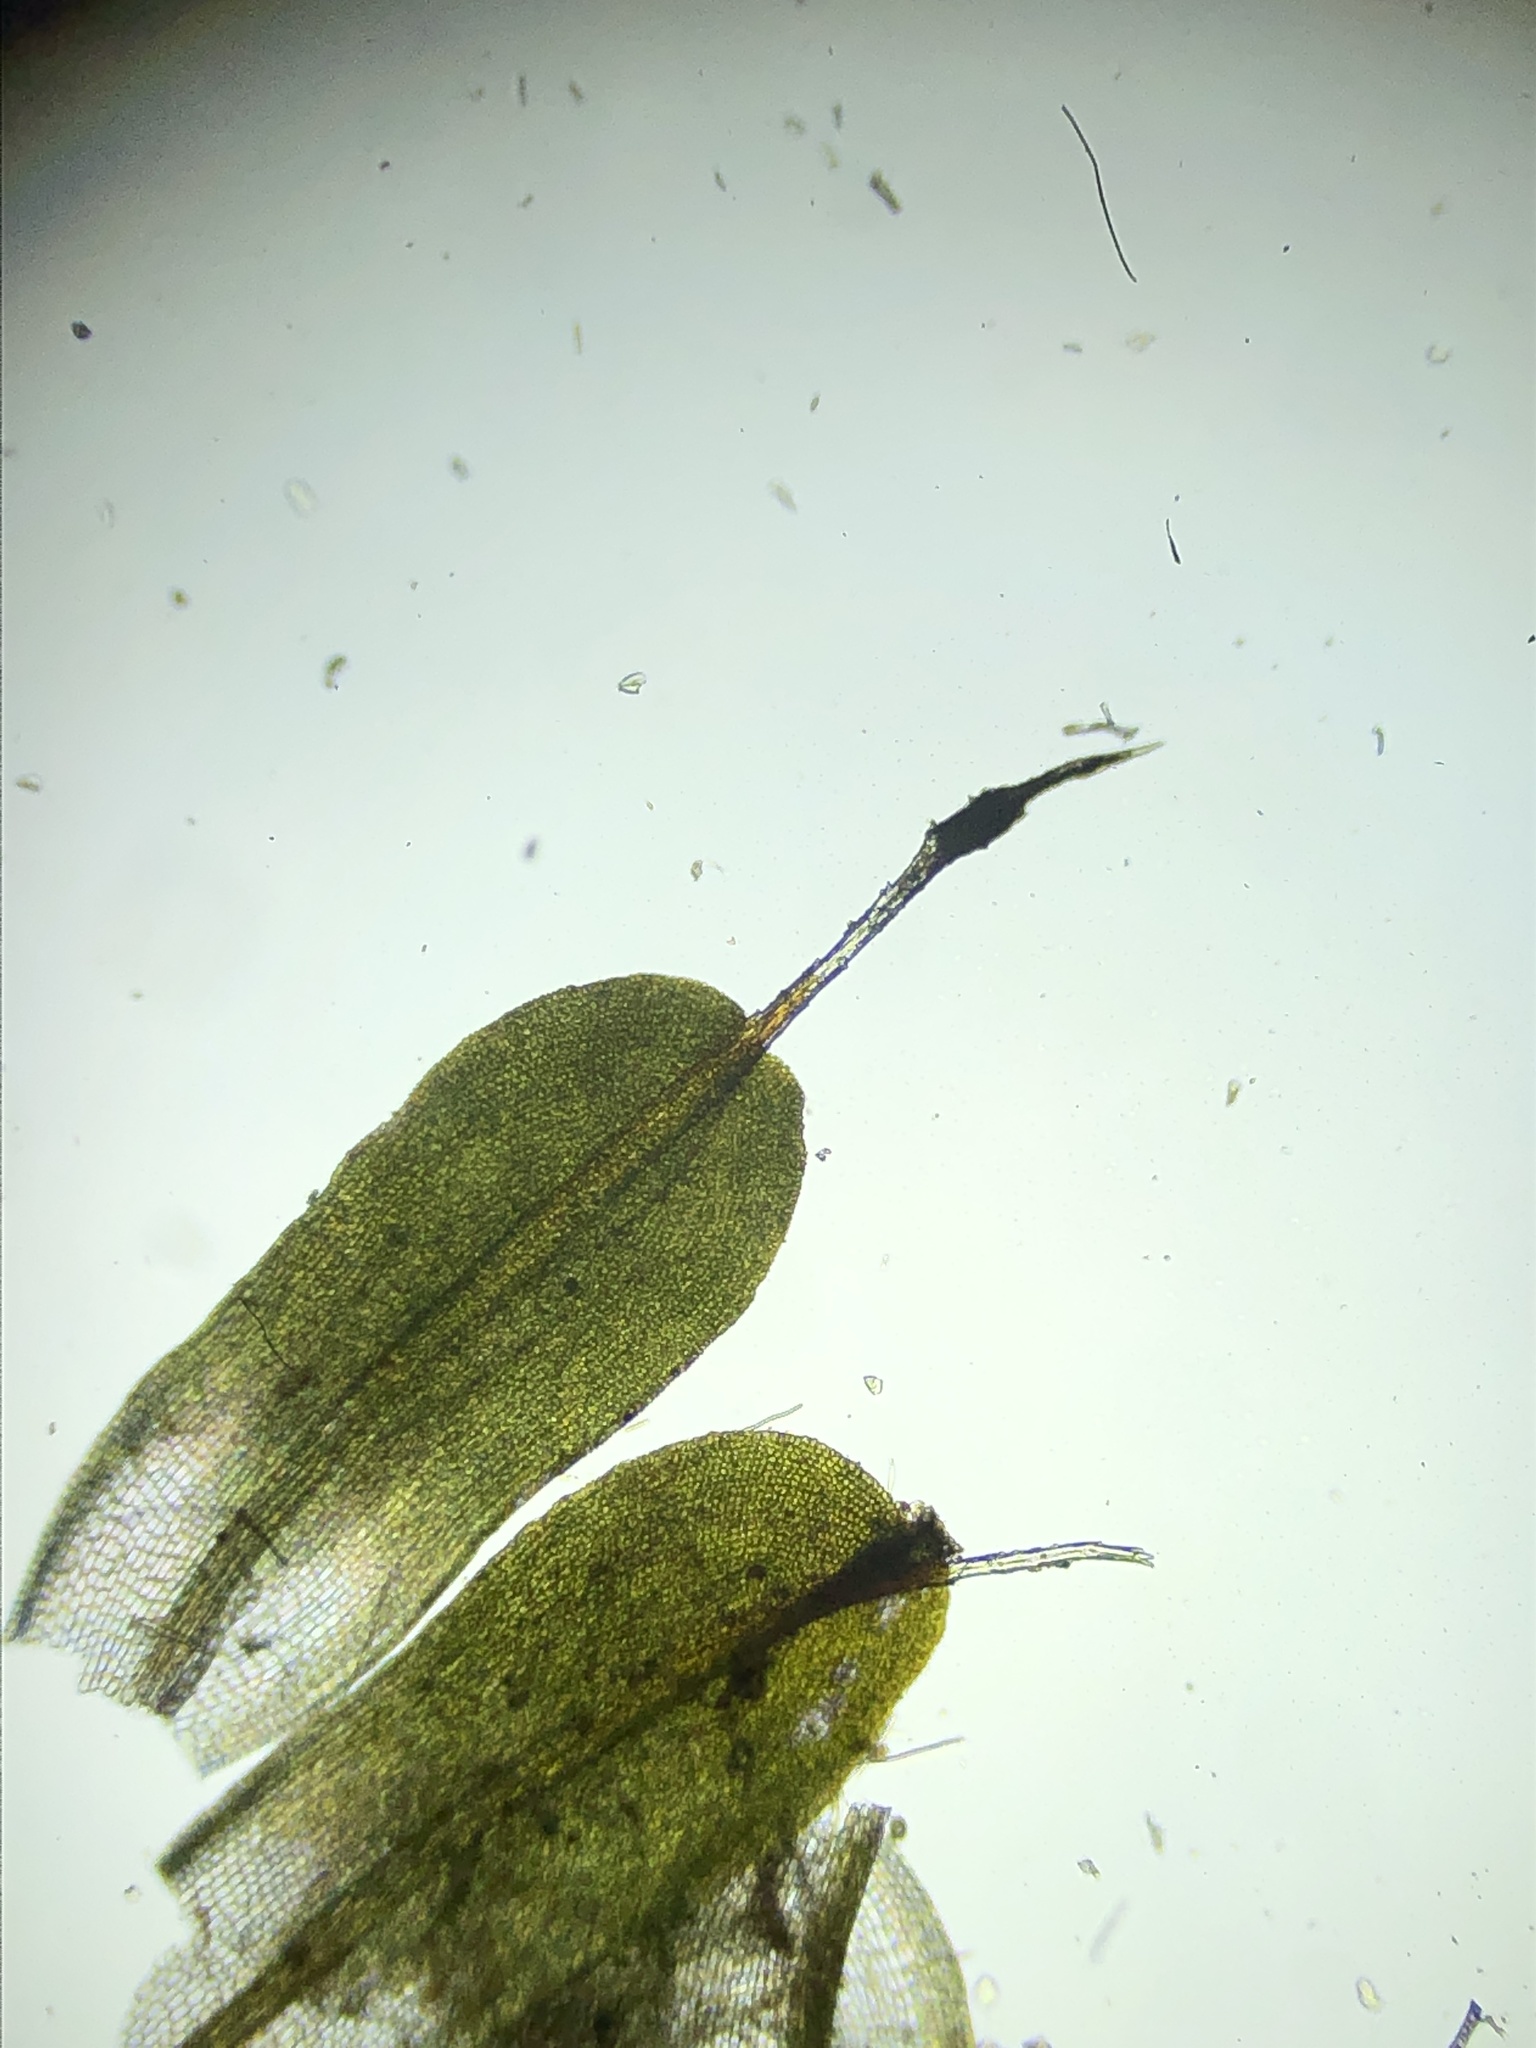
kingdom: Plantae
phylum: Bryophyta
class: Bryopsida
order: Pottiales
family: Pottiaceae
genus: Syntrichia
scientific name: Syntrichia virescens
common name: Lesser screw-moss
